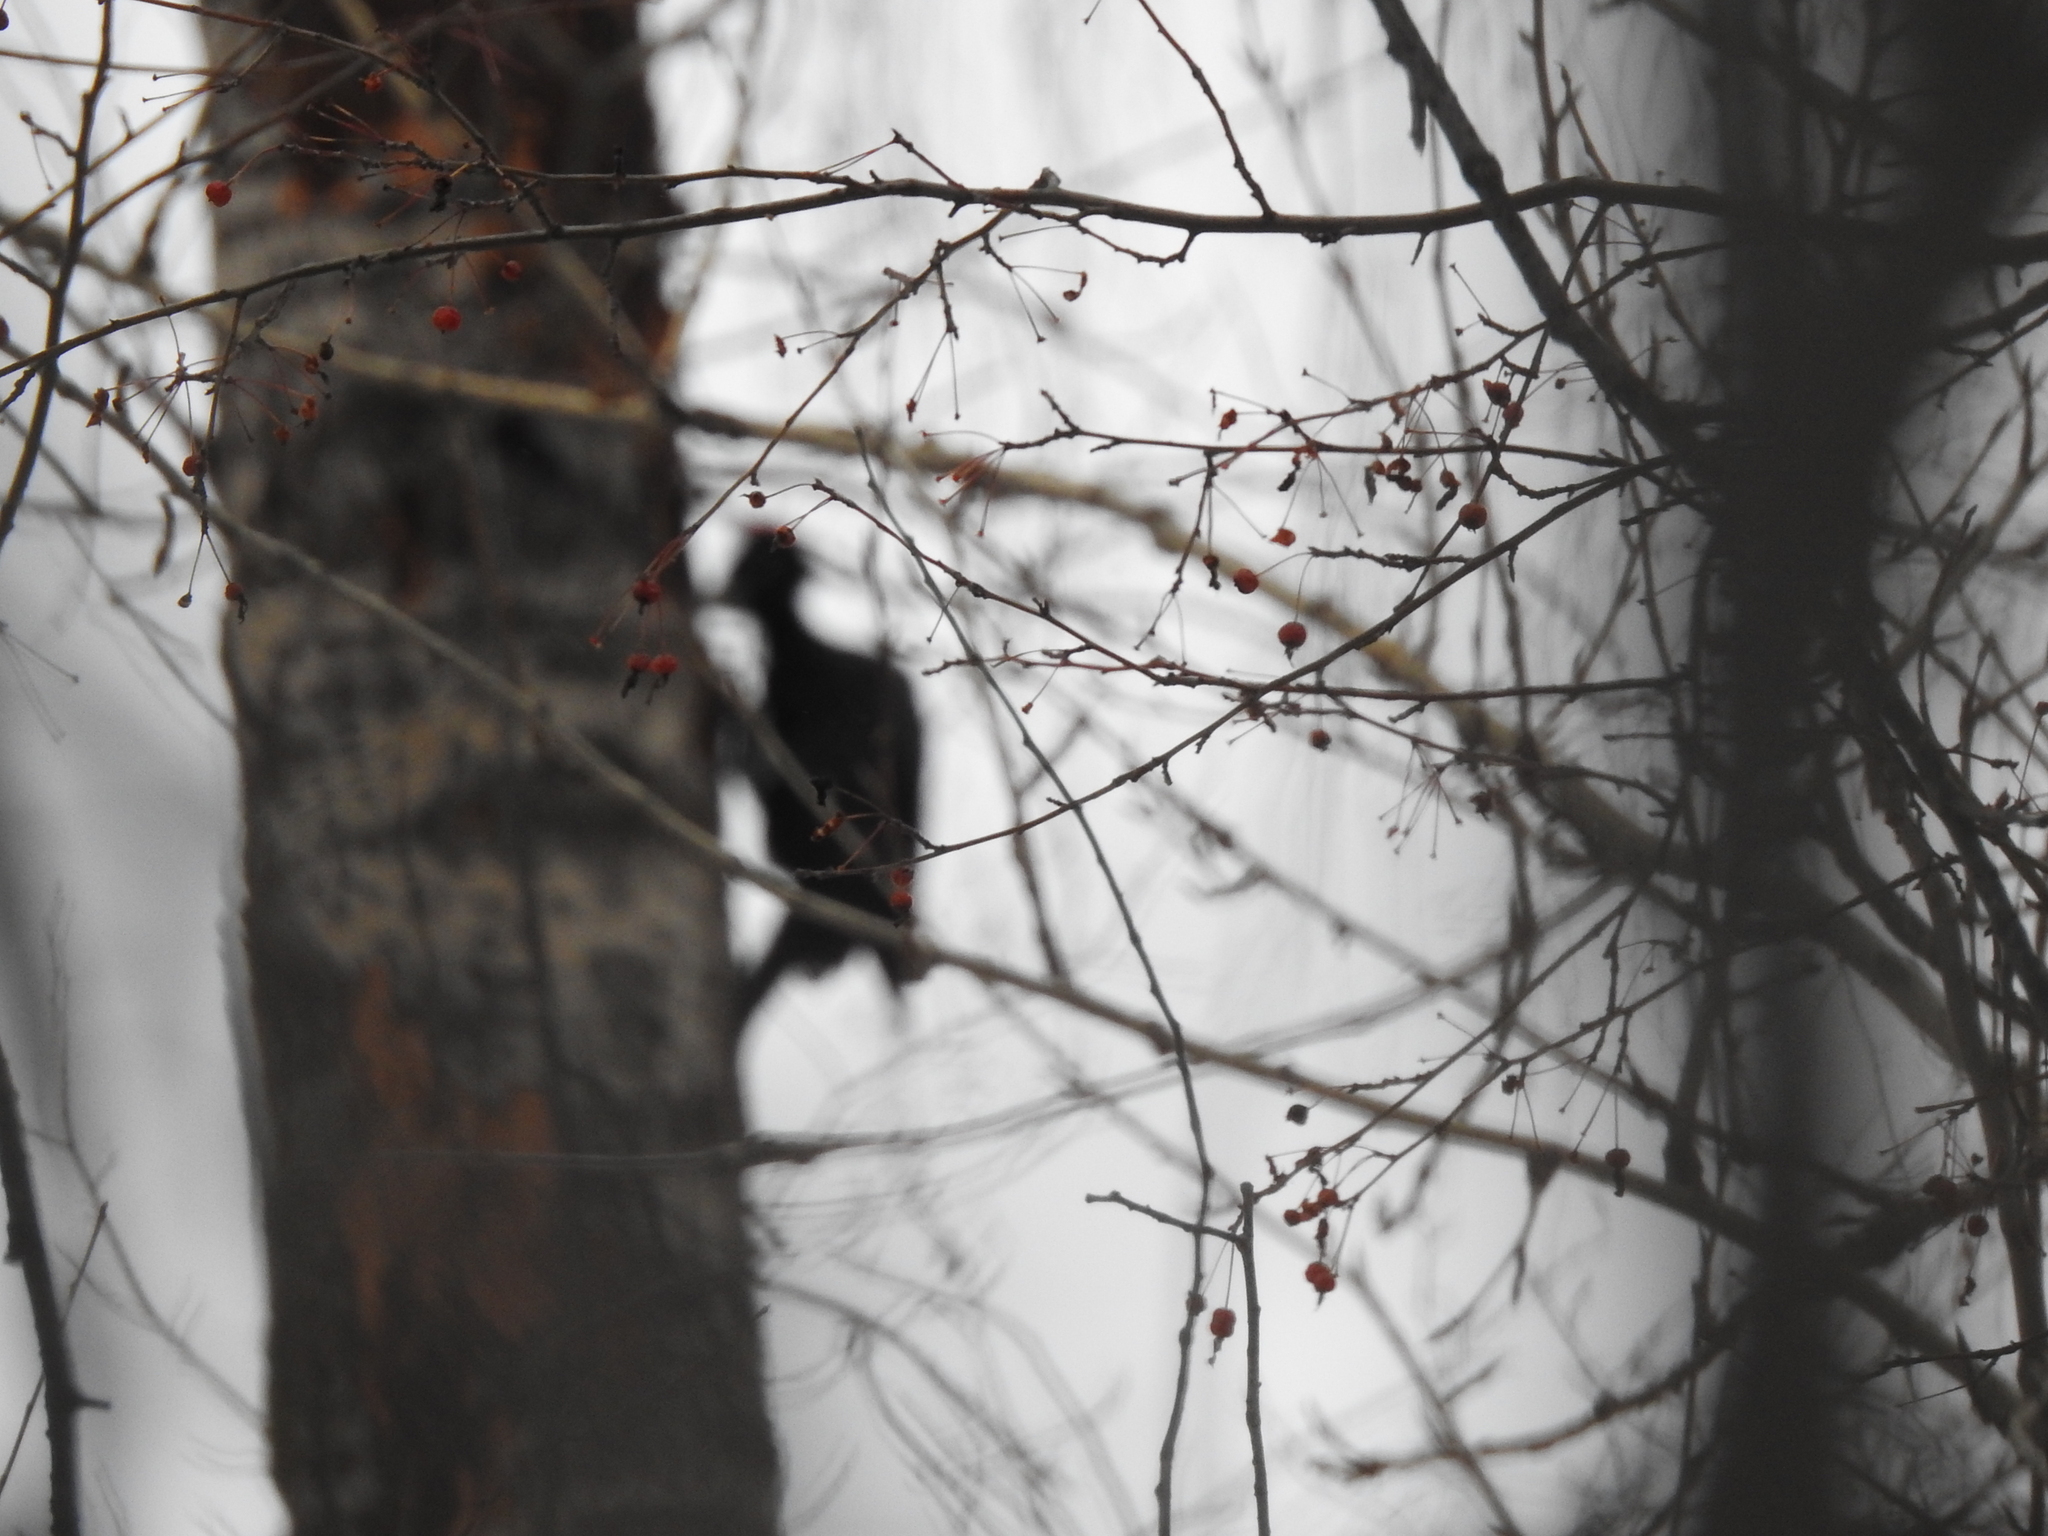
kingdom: Animalia
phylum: Chordata
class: Aves
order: Piciformes
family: Picidae
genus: Dryocopus
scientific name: Dryocopus martius
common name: Black woodpecker
